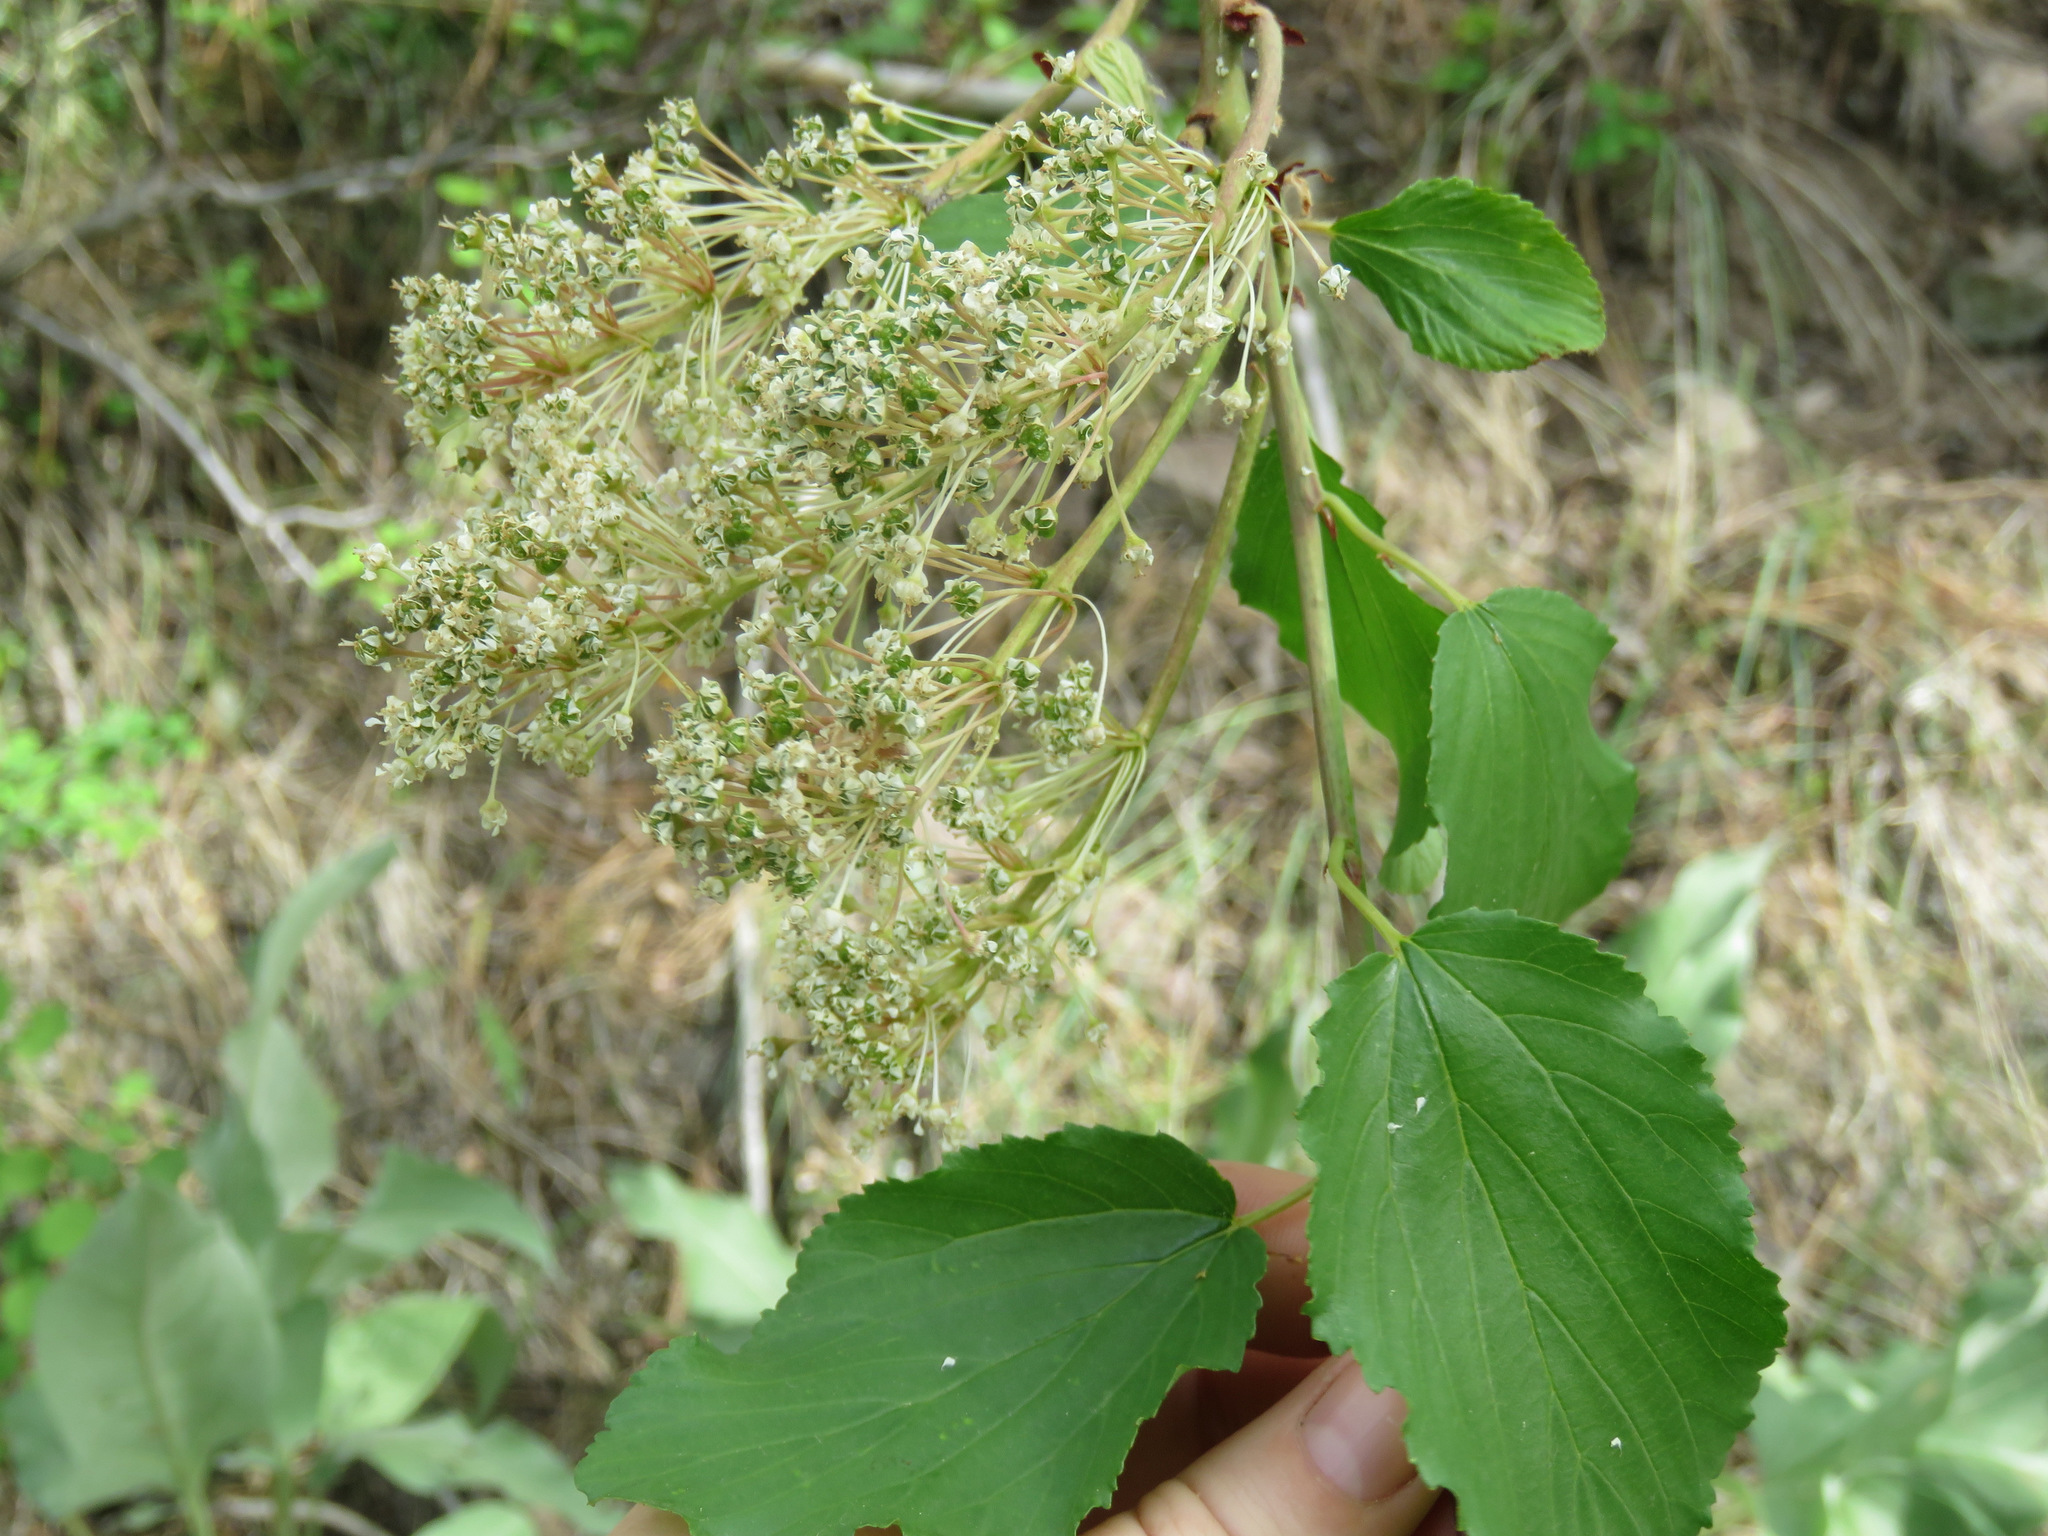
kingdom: Plantae
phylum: Tracheophyta
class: Magnoliopsida
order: Rosales
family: Rhamnaceae
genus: Ceanothus
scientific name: Ceanothus sanguineus
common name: Teatree
